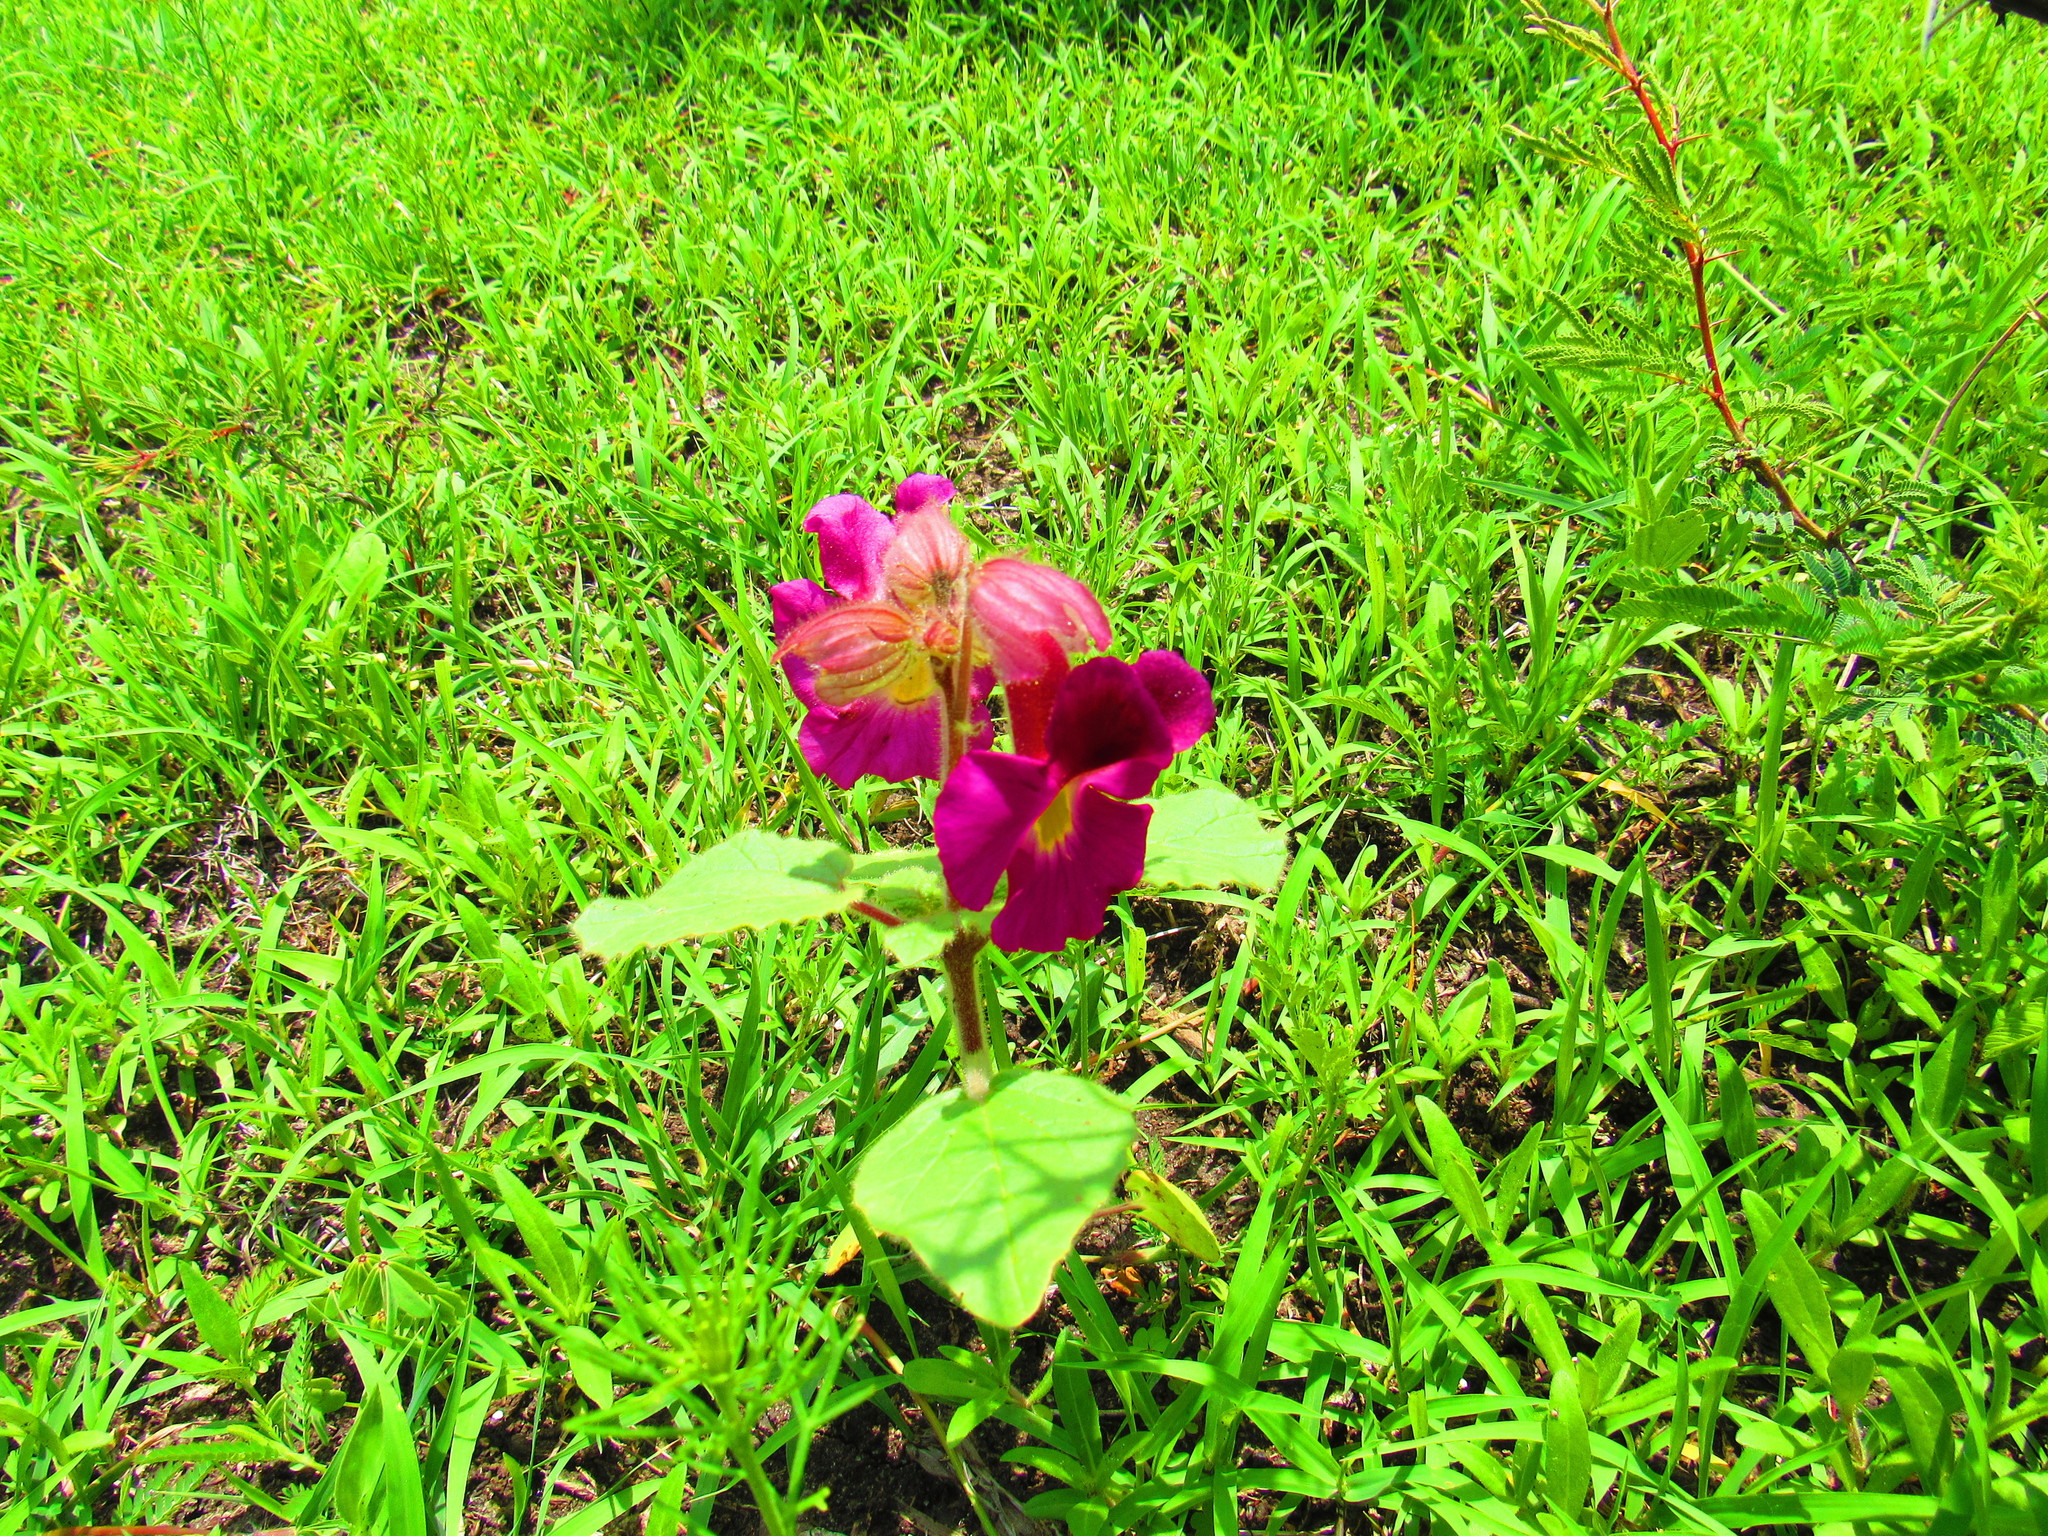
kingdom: Plantae
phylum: Tracheophyta
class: Magnoliopsida
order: Lamiales
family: Martyniaceae
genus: Proboscidea
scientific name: Proboscidea louisianica
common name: Elephant tusks
